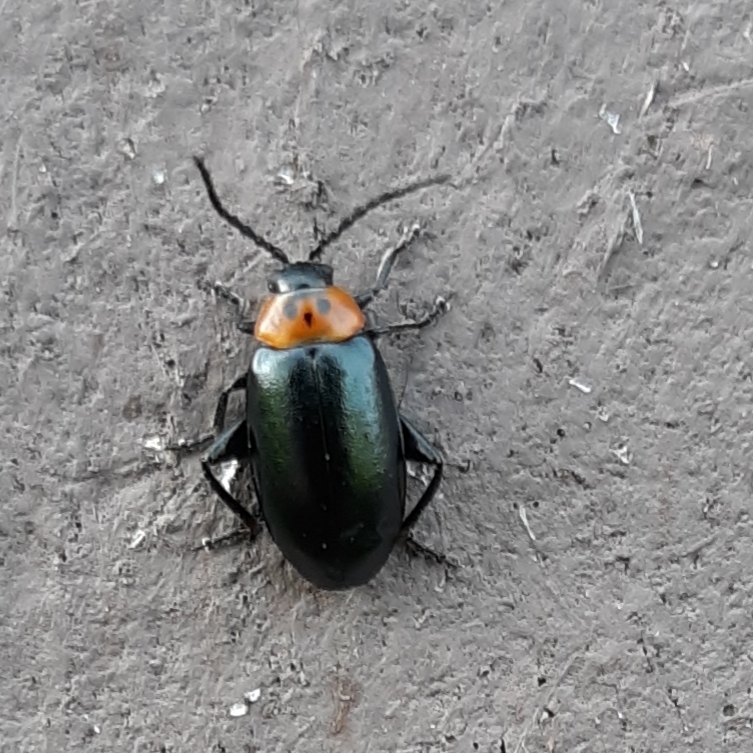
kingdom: Animalia
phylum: Arthropoda
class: Insecta
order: Coleoptera
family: Chrysomelidae
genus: Disonycha
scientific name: Disonycha triangularis
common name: Three-spotted flea beetle
